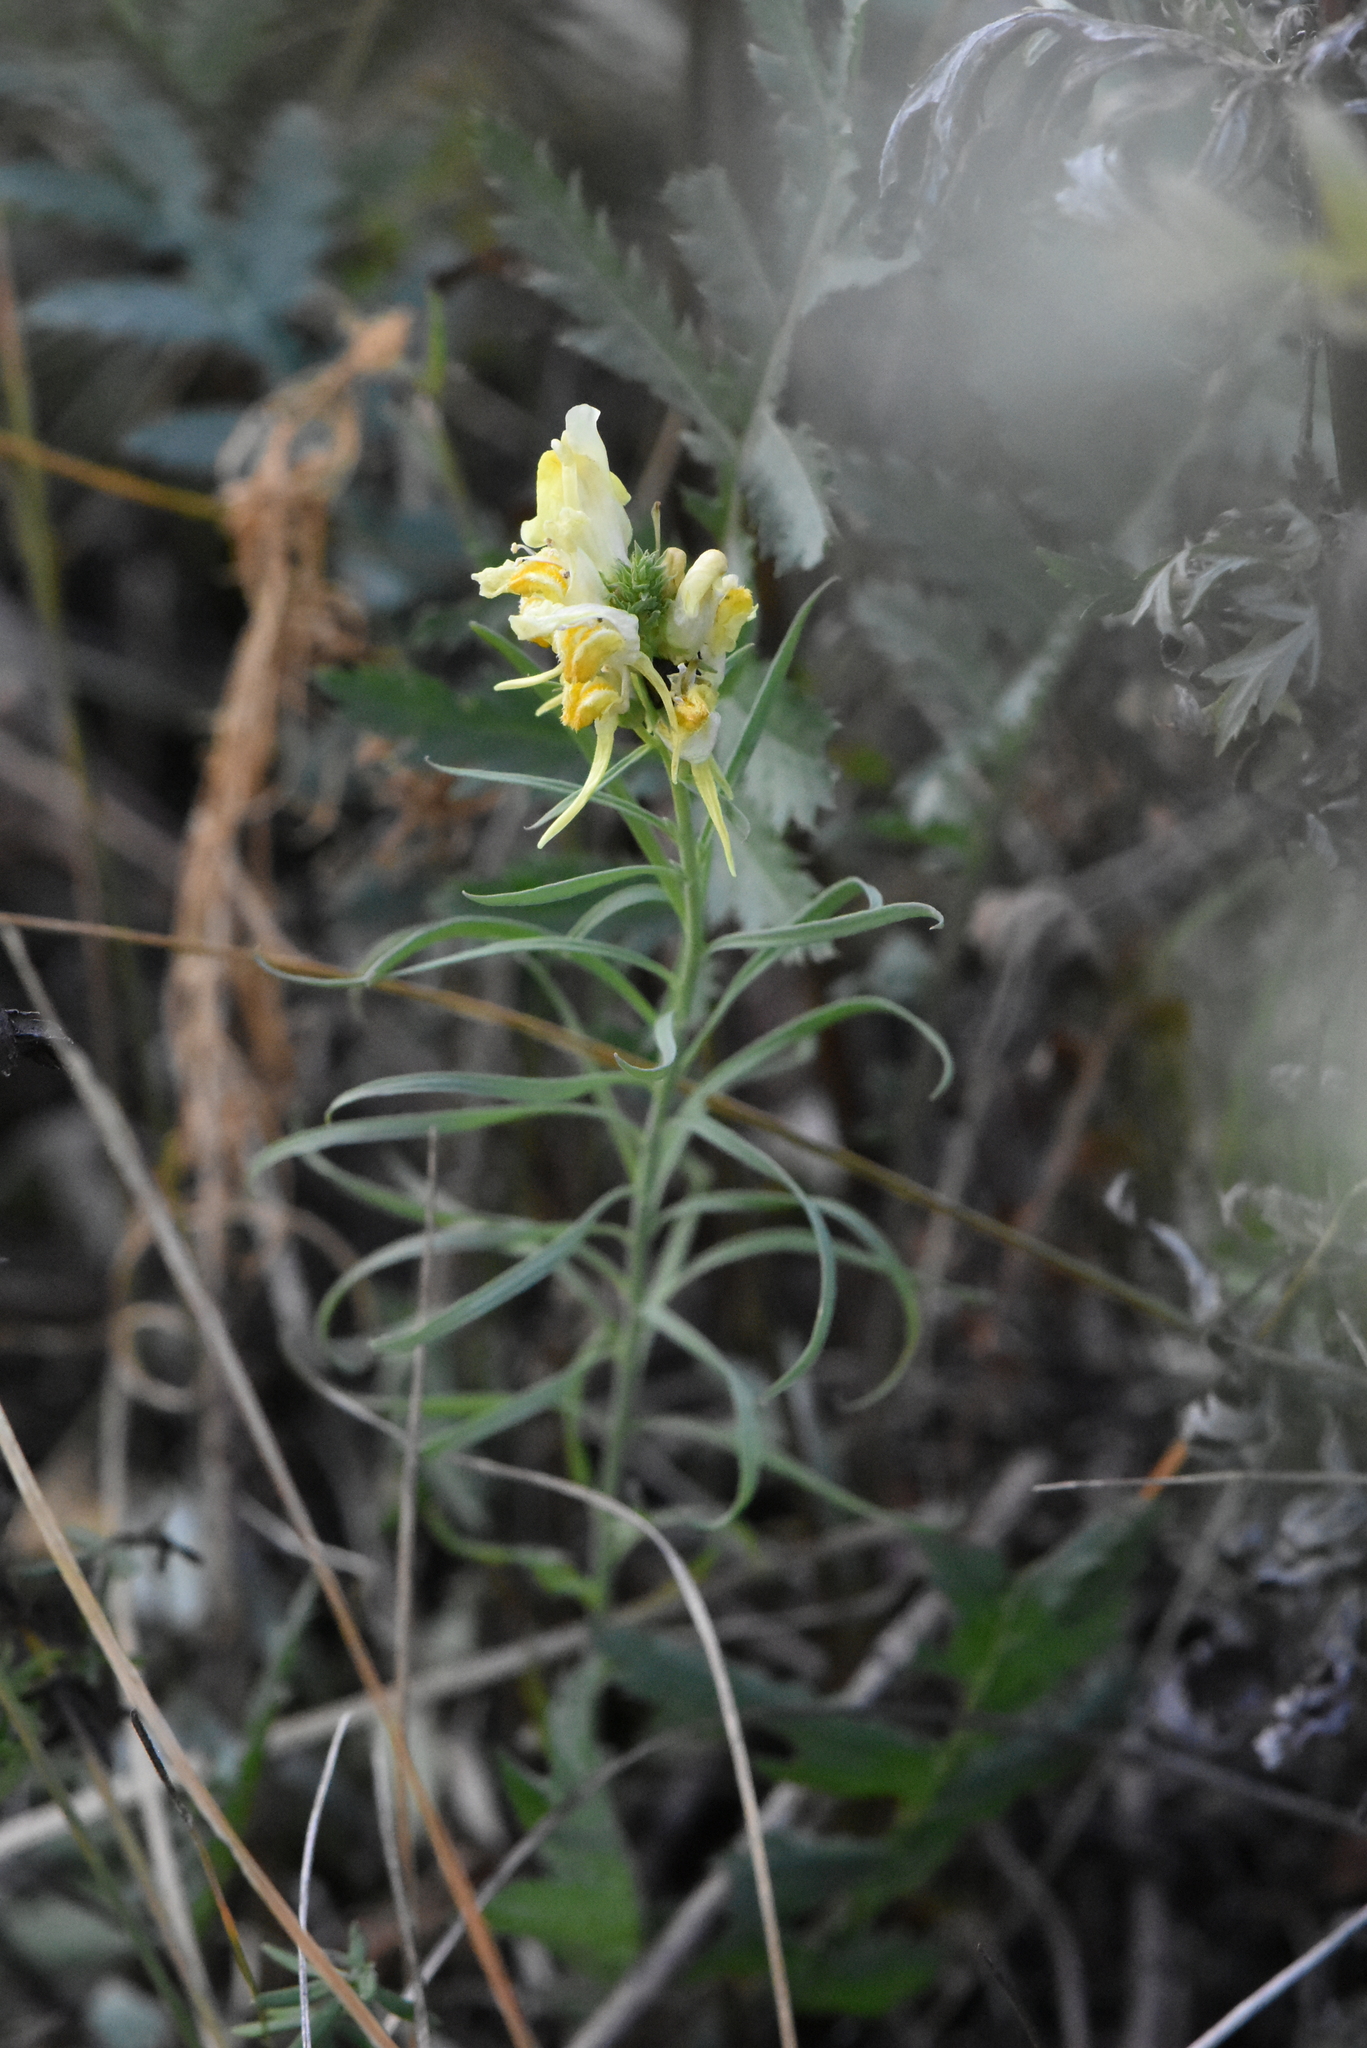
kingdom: Plantae
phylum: Tracheophyta
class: Magnoliopsida
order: Lamiales
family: Plantaginaceae
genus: Linaria
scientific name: Linaria vulgaris
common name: Butter and eggs
